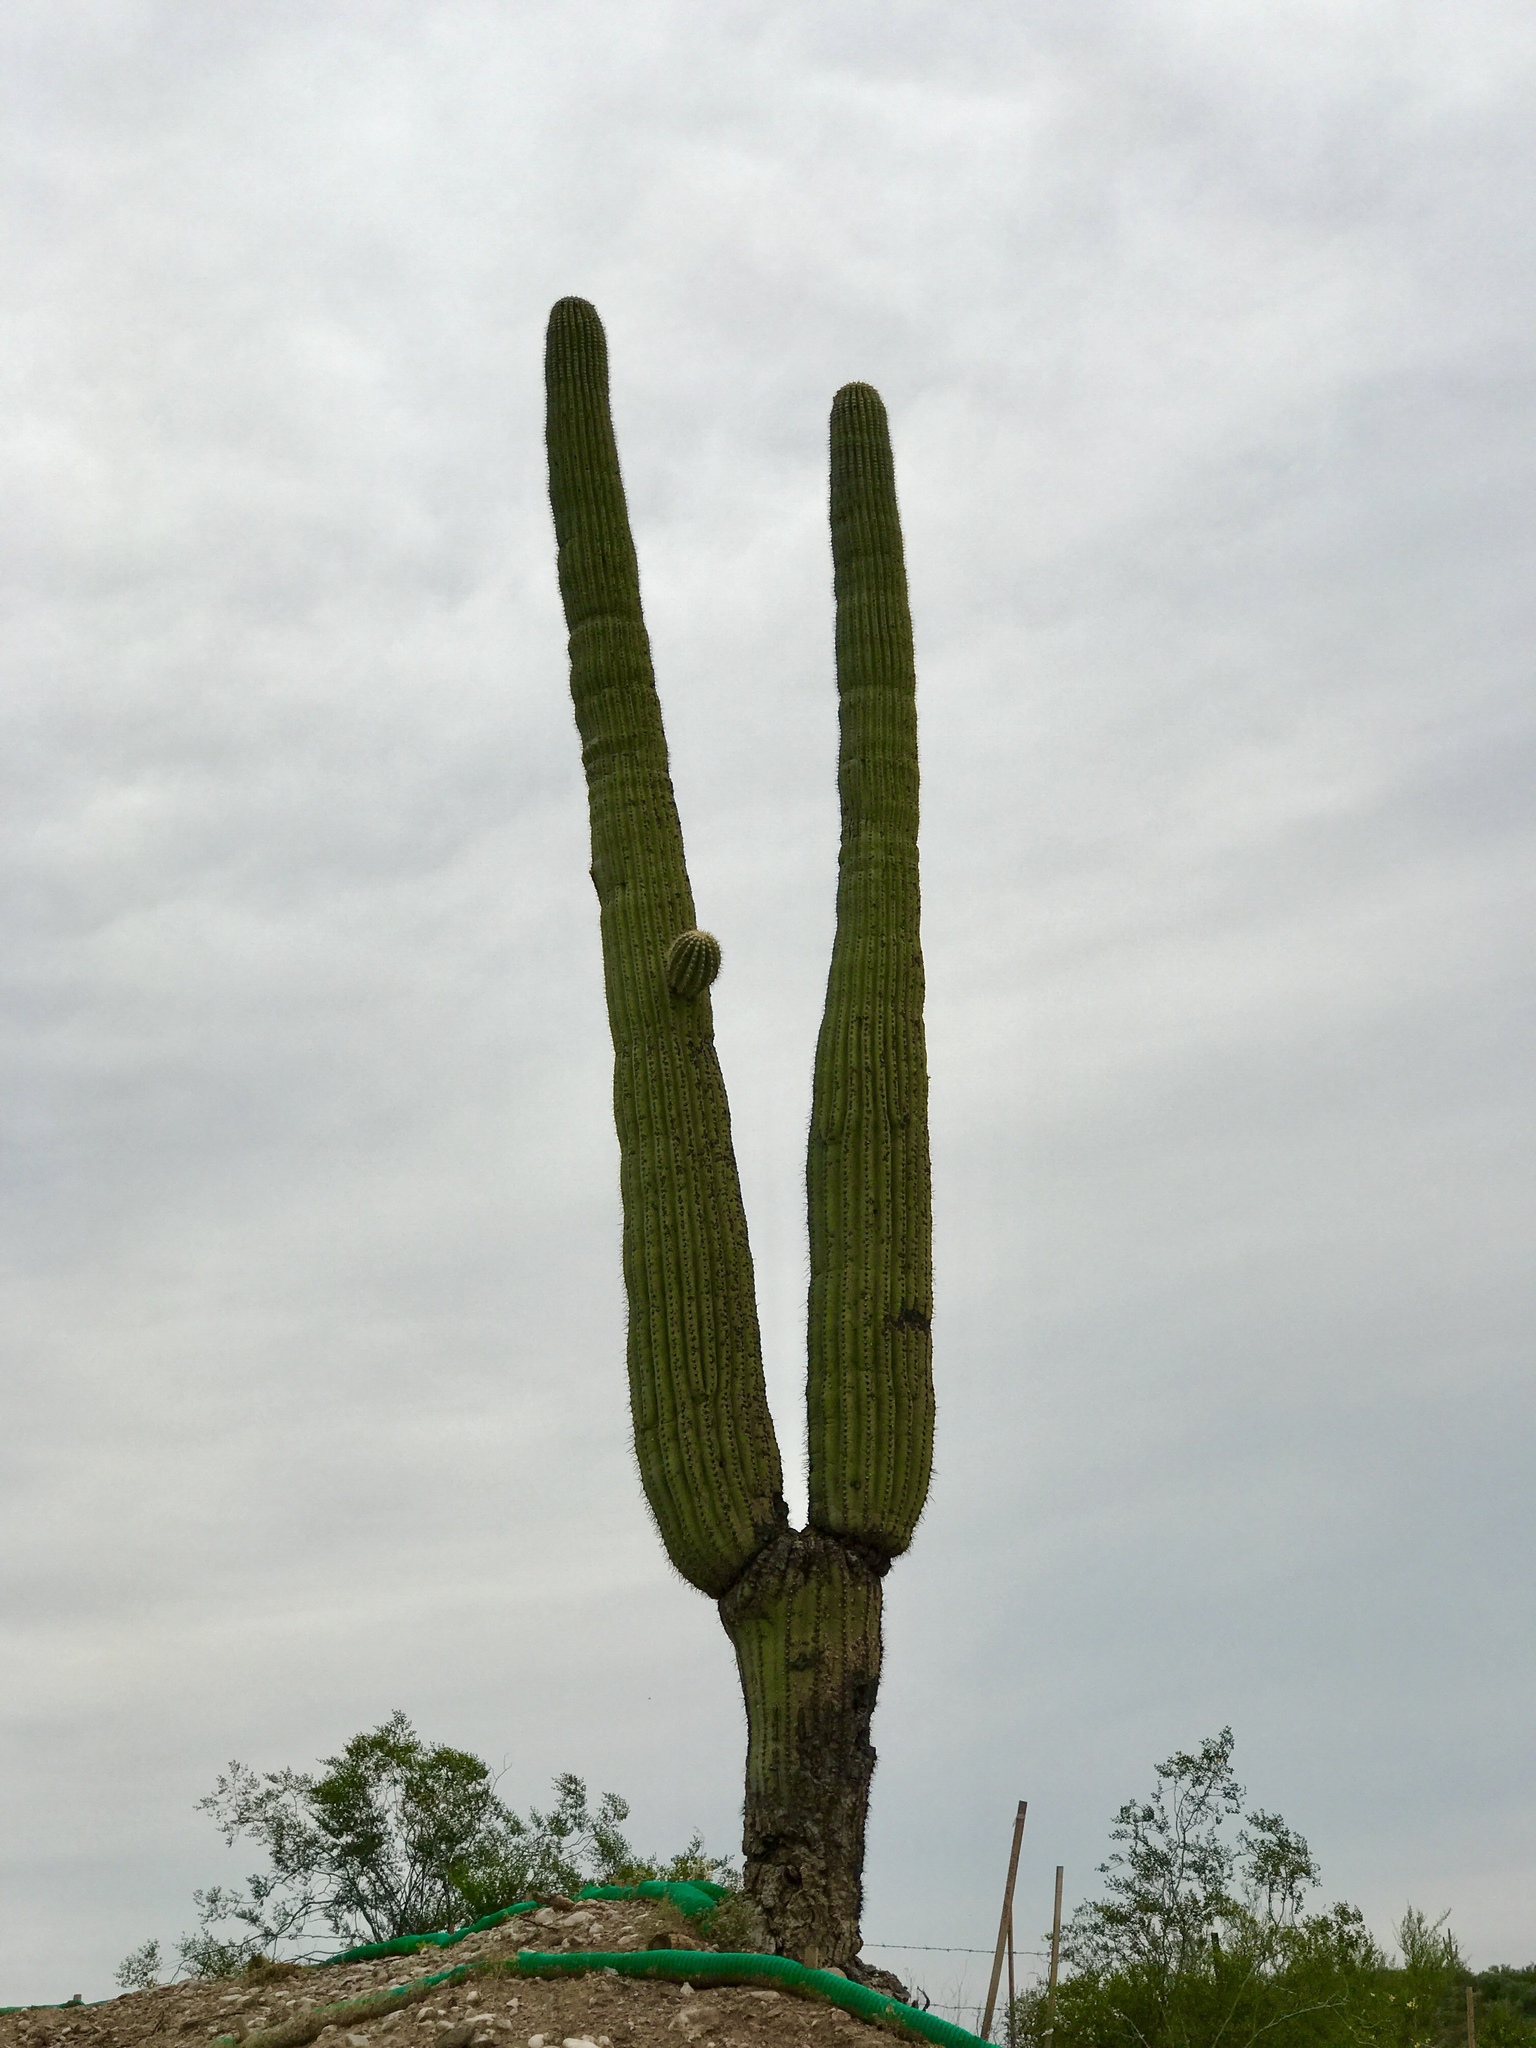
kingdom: Plantae
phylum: Tracheophyta
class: Magnoliopsida
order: Caryophyllales
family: Cactaceae
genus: Carnegiea
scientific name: Carnegiea gigantea
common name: Saguaro
